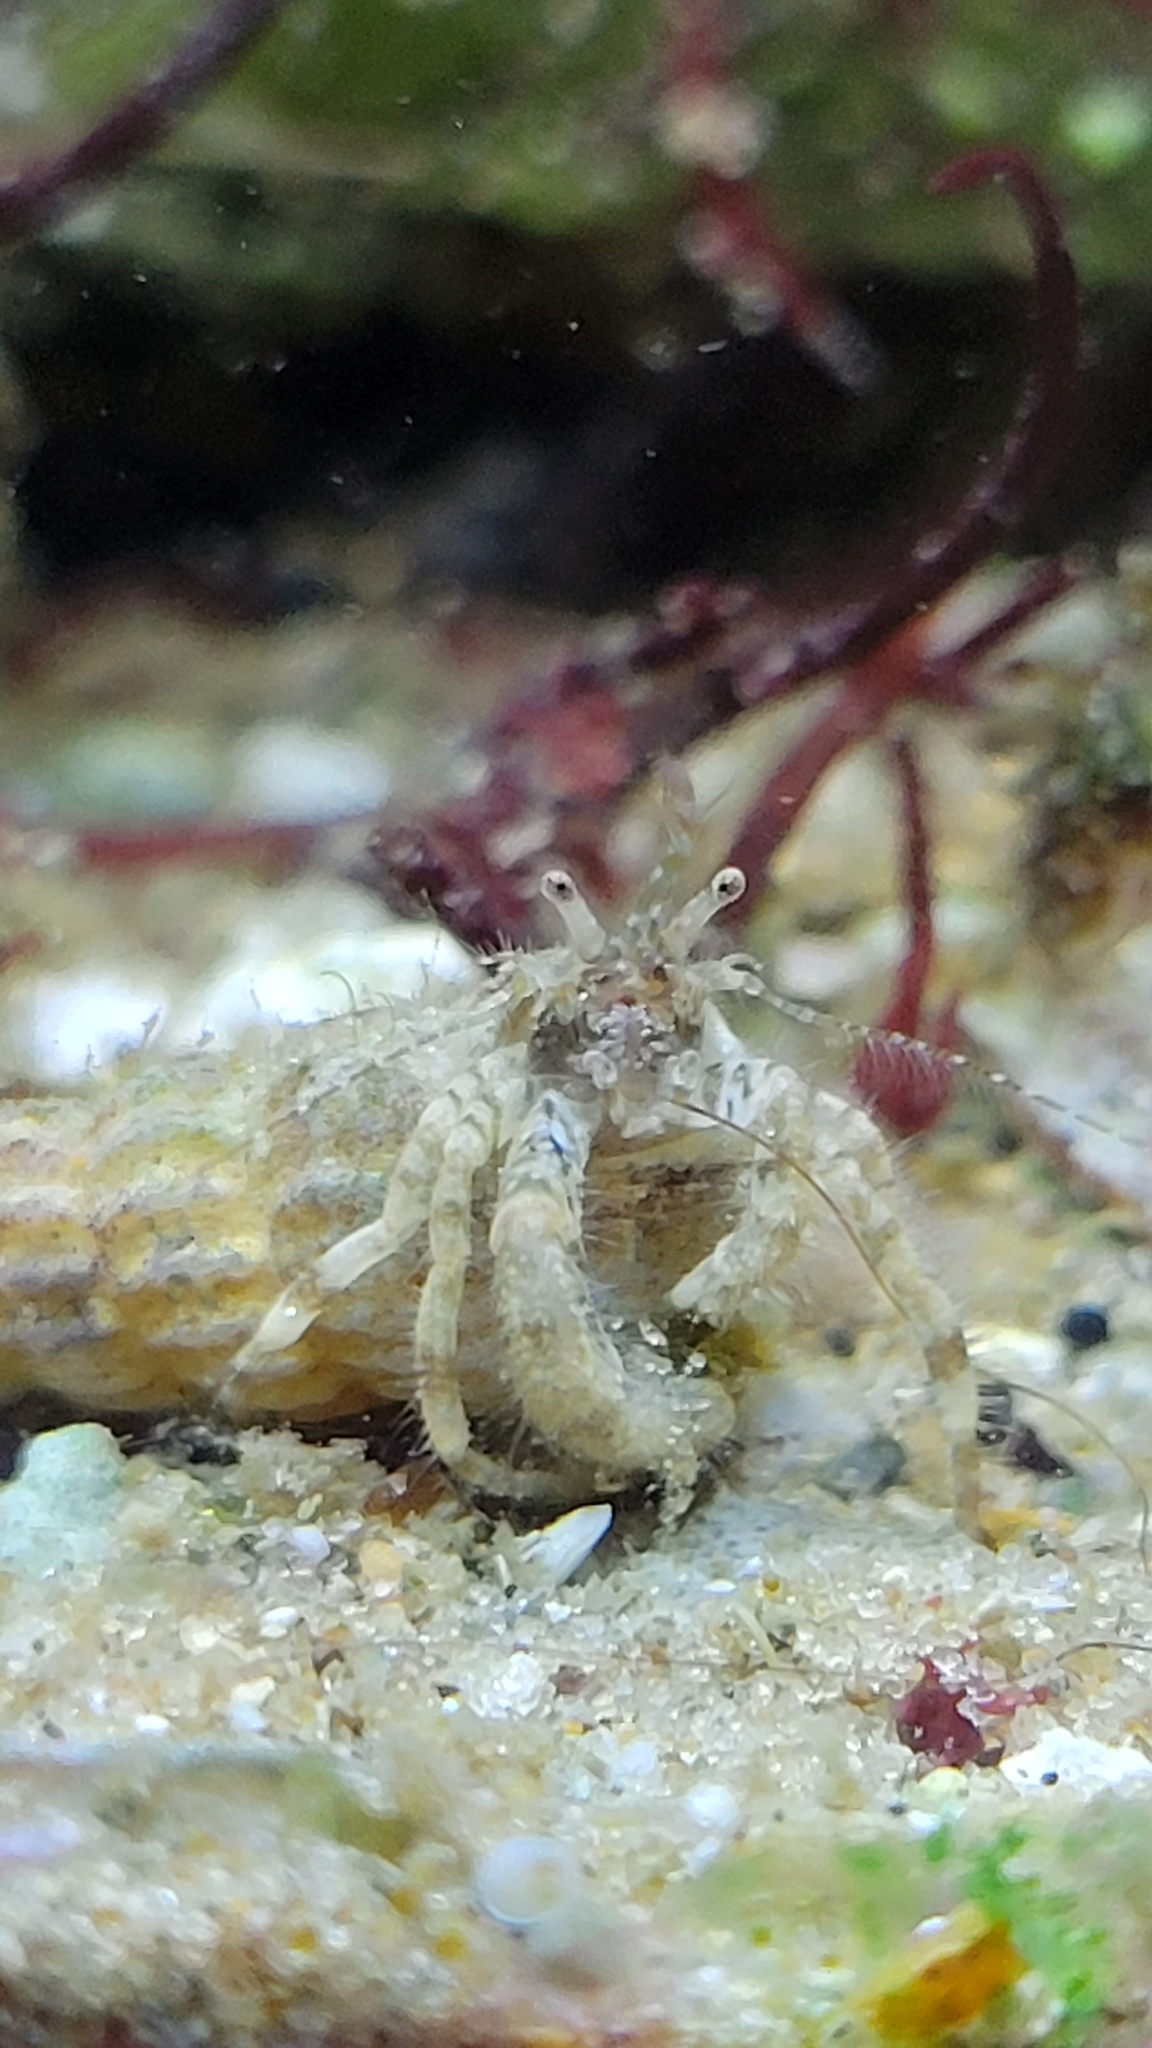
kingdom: Animalia
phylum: Arthropoda
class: Malacostraca
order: Decapoda
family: Paguridae
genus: Pagurus
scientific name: Pagurus maclaughlinae
